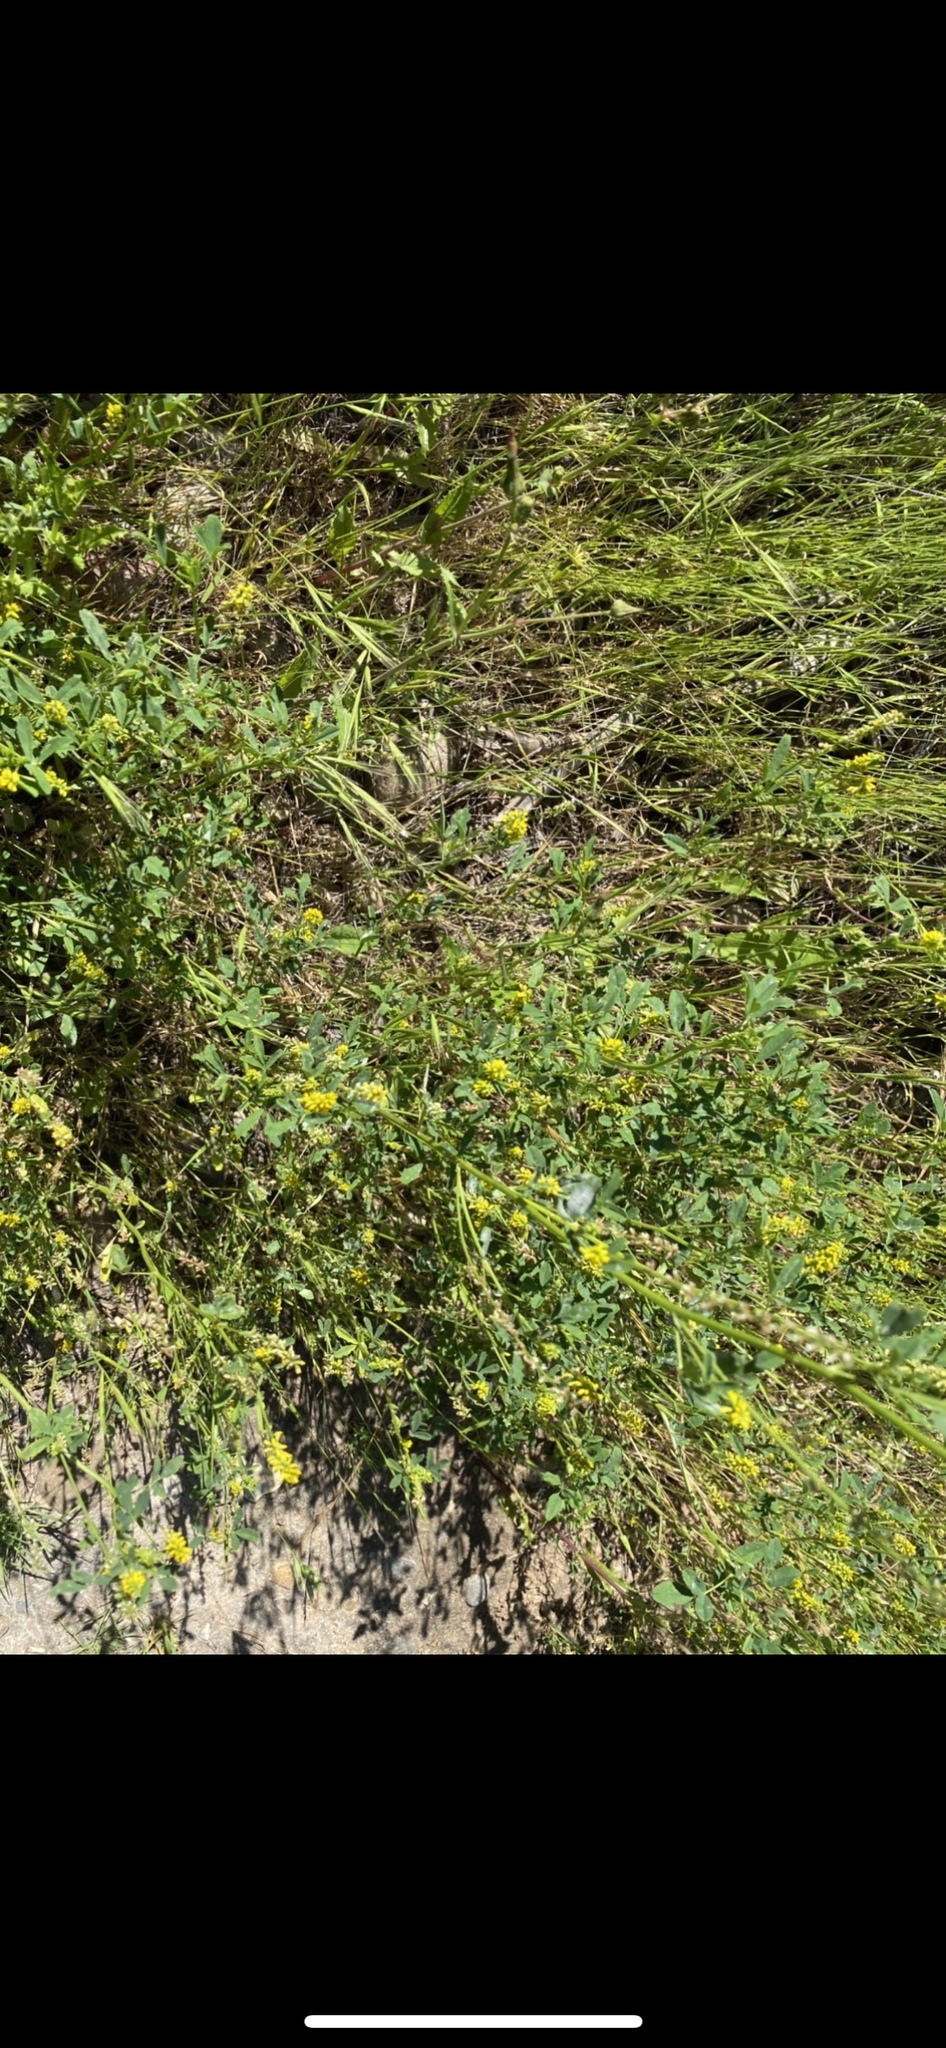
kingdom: Plantae
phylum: Tracheophyta
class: Magnoliopsida
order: Fabales
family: Fabaceae
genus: Melilotus
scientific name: Melilotus indicus
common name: Small melilot
